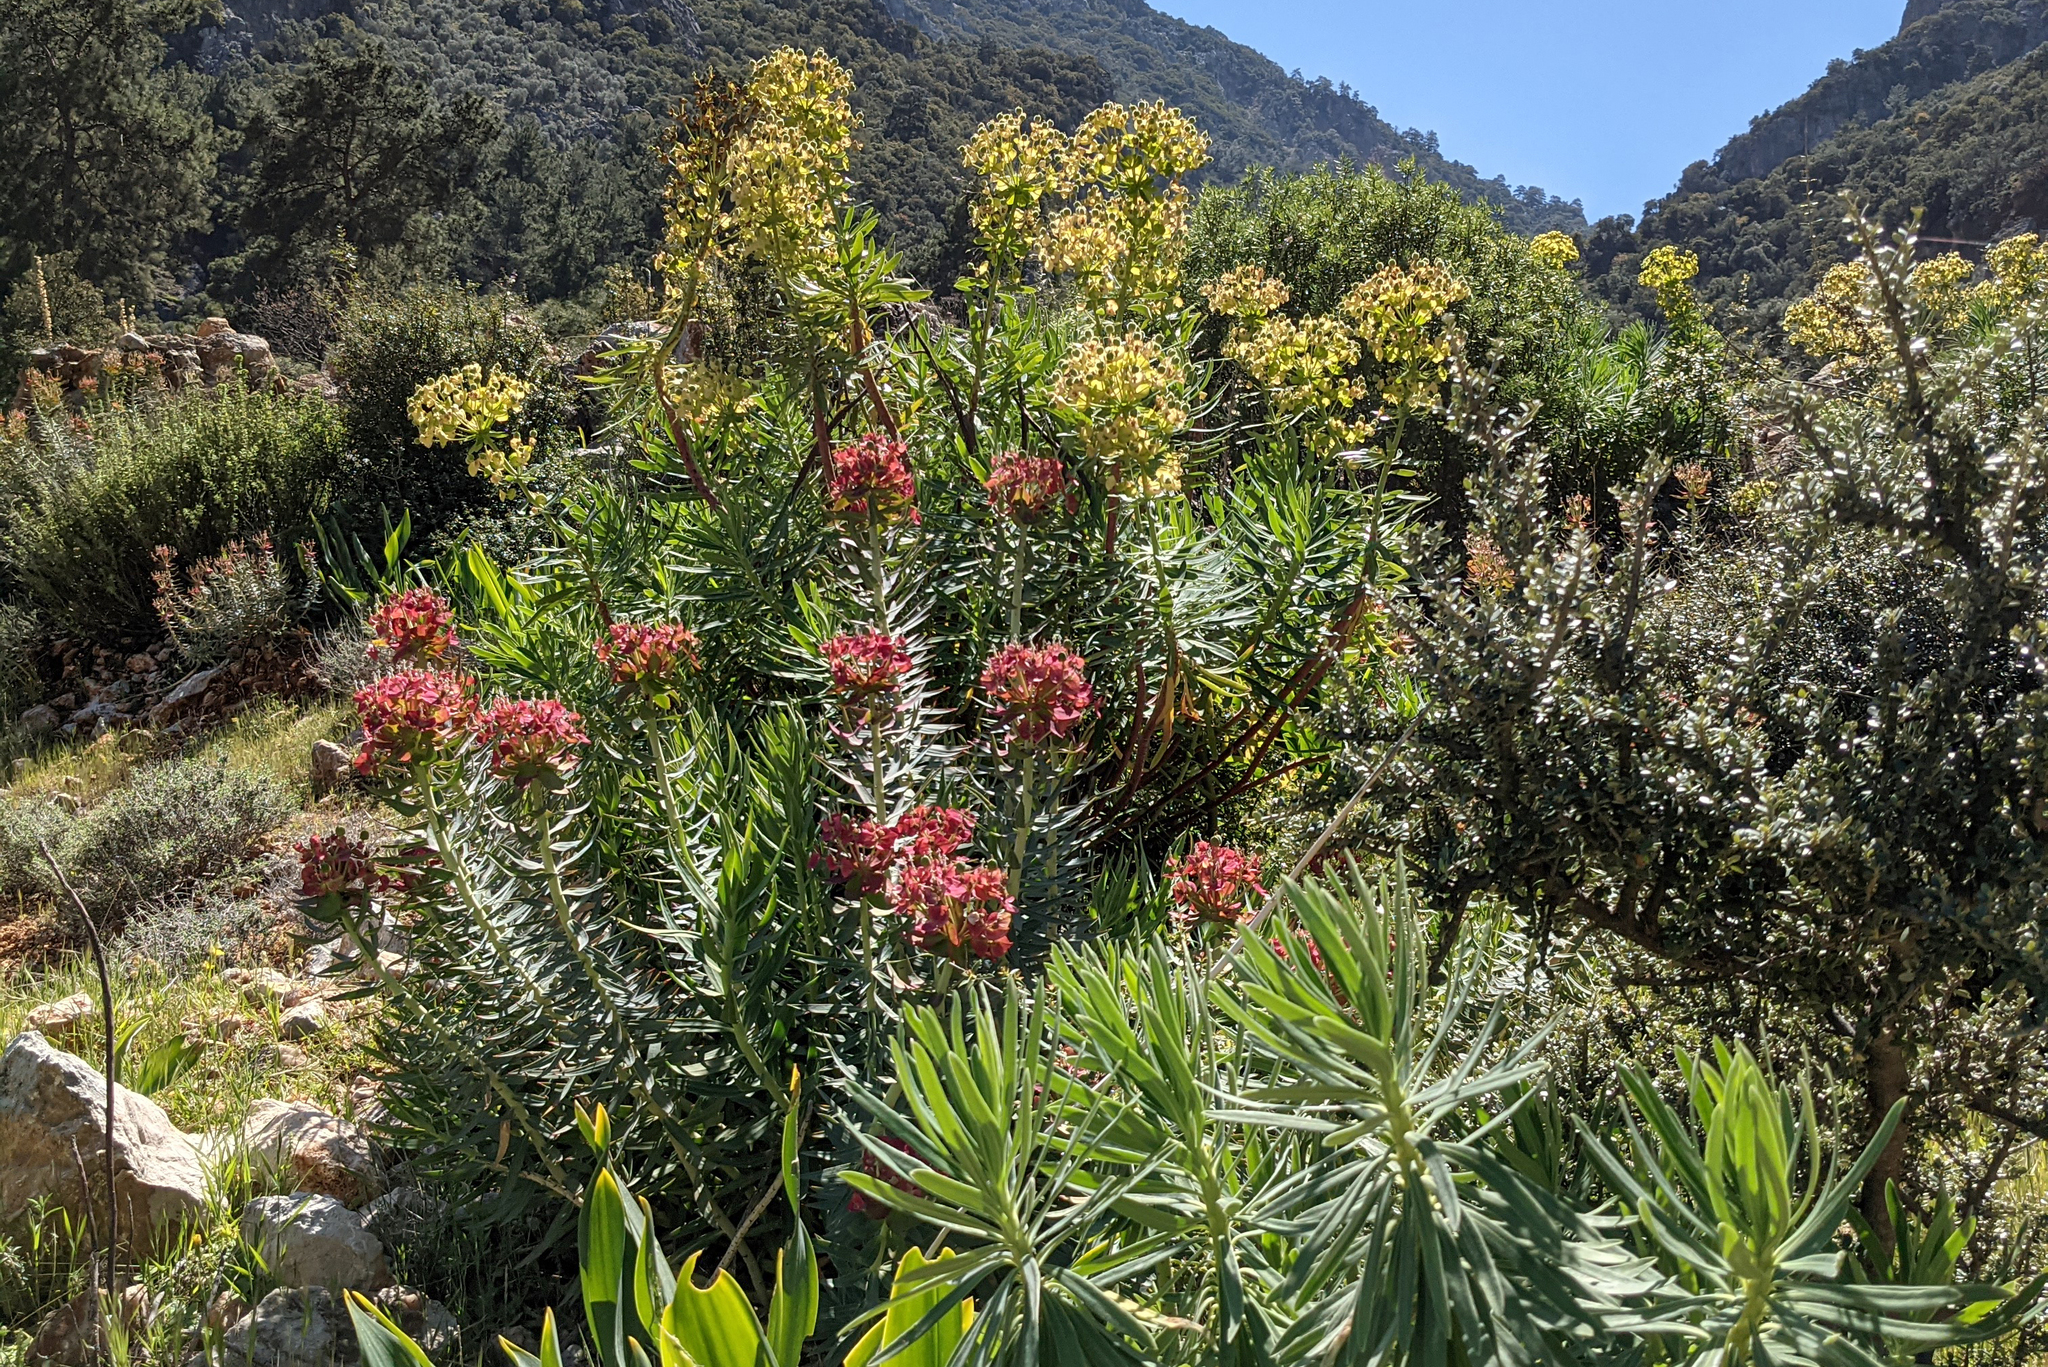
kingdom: Plantae
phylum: Tracheophyta
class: Magnoliopsida
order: Malpighiales
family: Euphorbiaceae
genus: Euphorbia
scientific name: Euphorbia rigida
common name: Upright myrtle spurge
